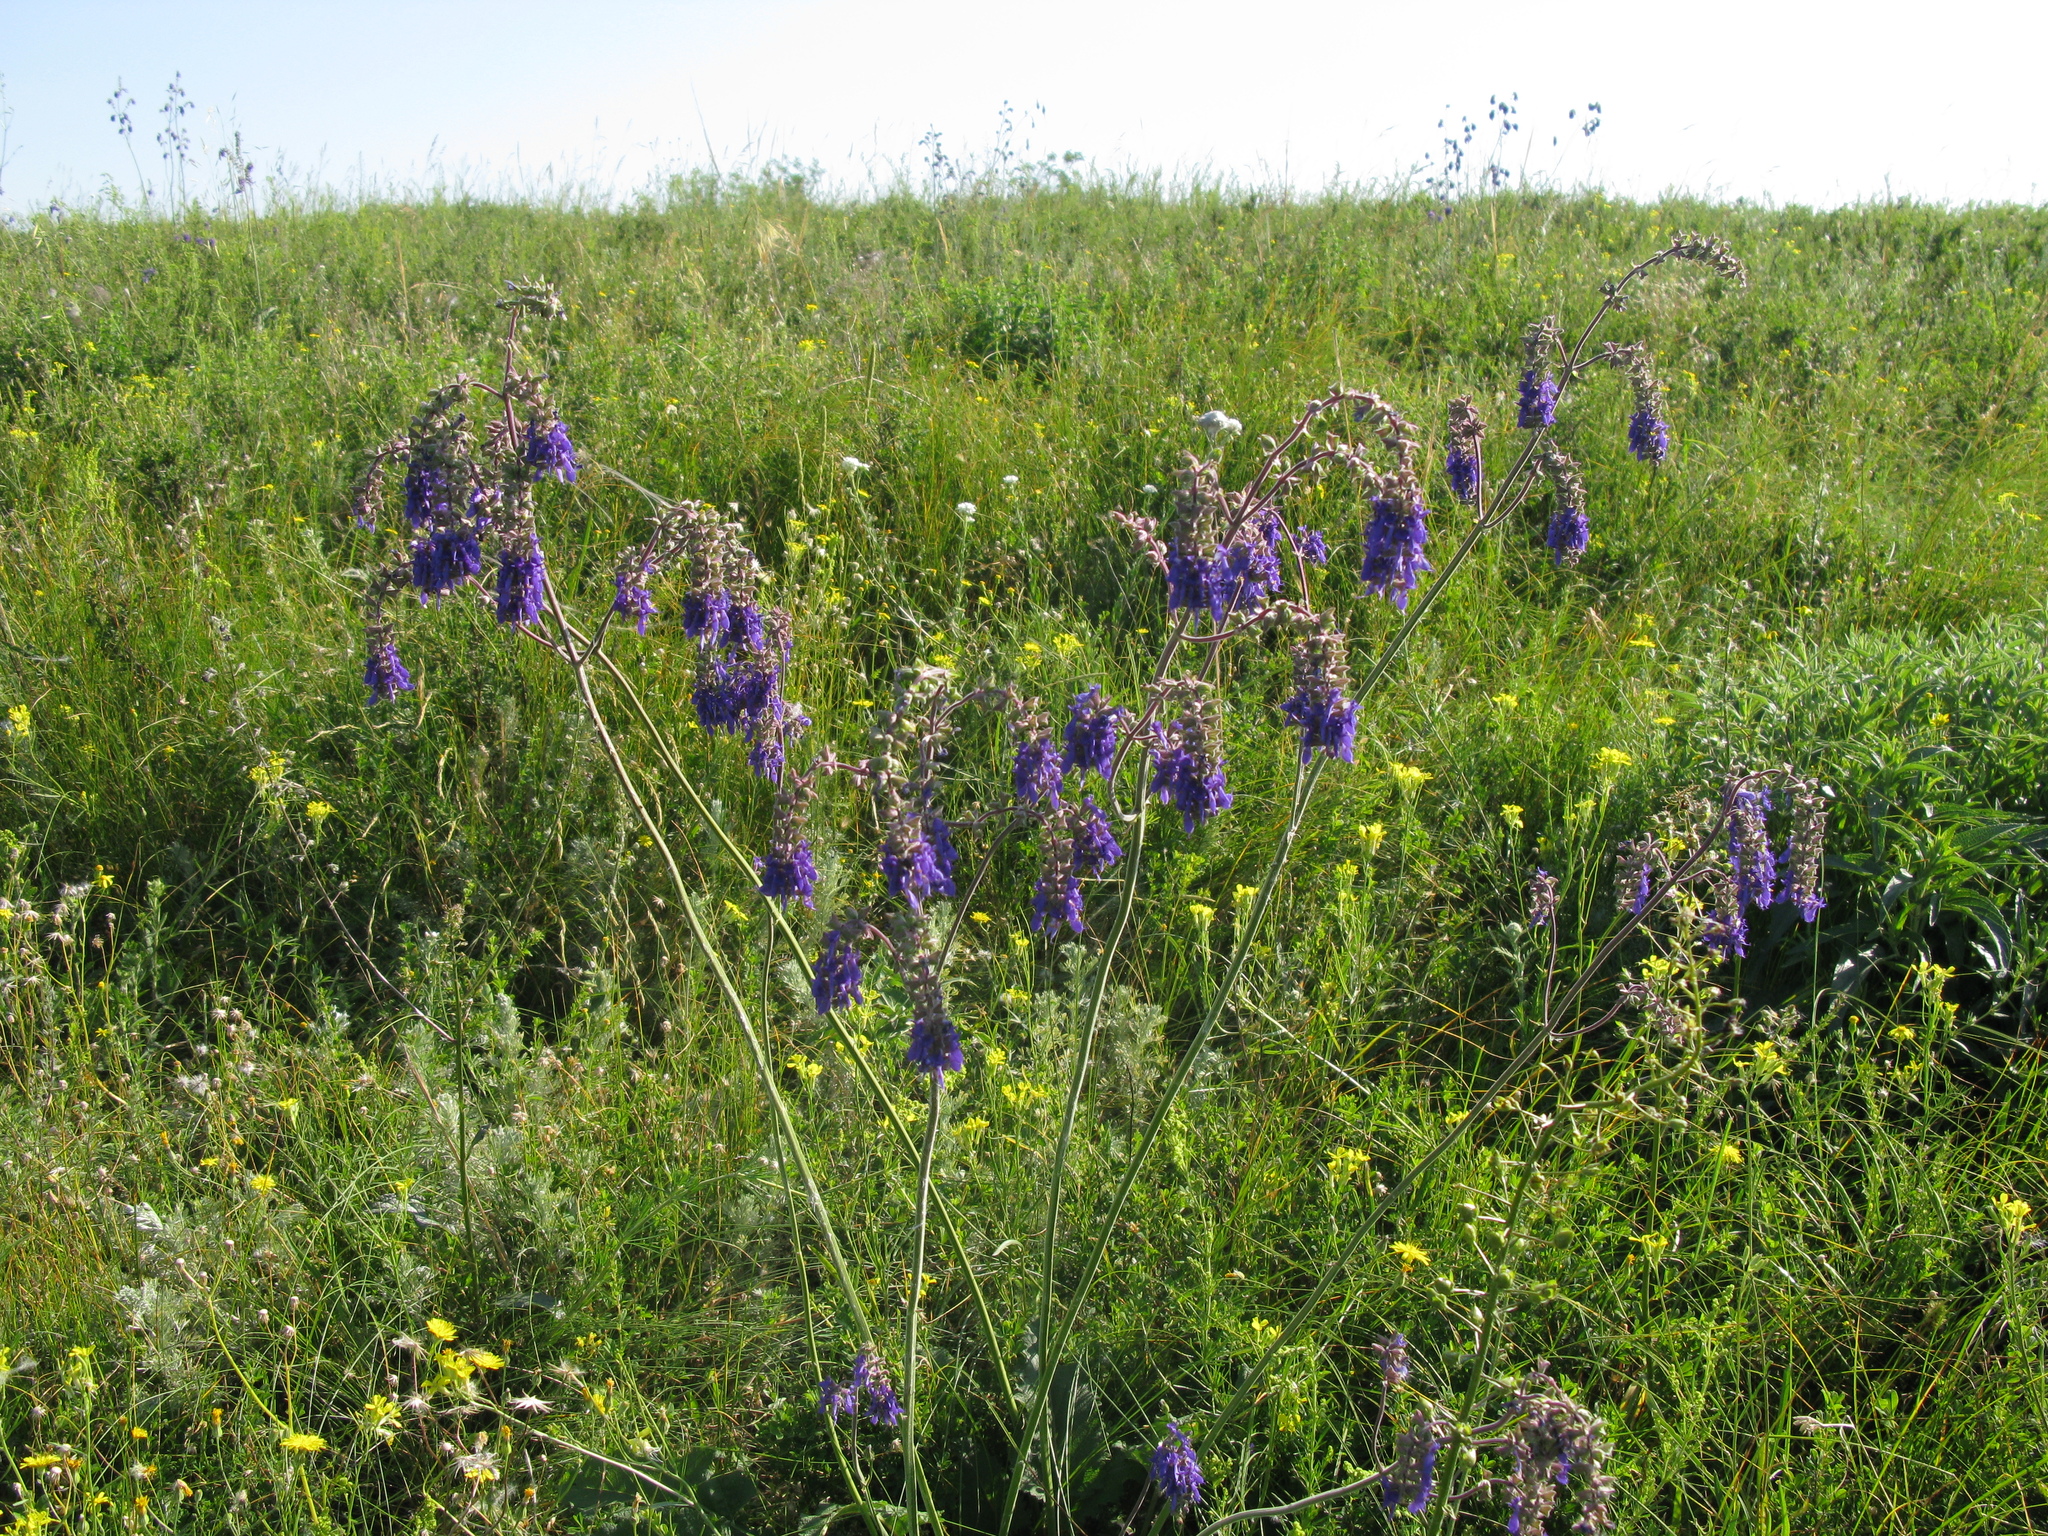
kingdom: Plantae
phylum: Tracheophyta
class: Magnoliopsida
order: Lamiales
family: Lamiaceae
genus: Salvia
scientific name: Salvia nutans
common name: Nodding sage
